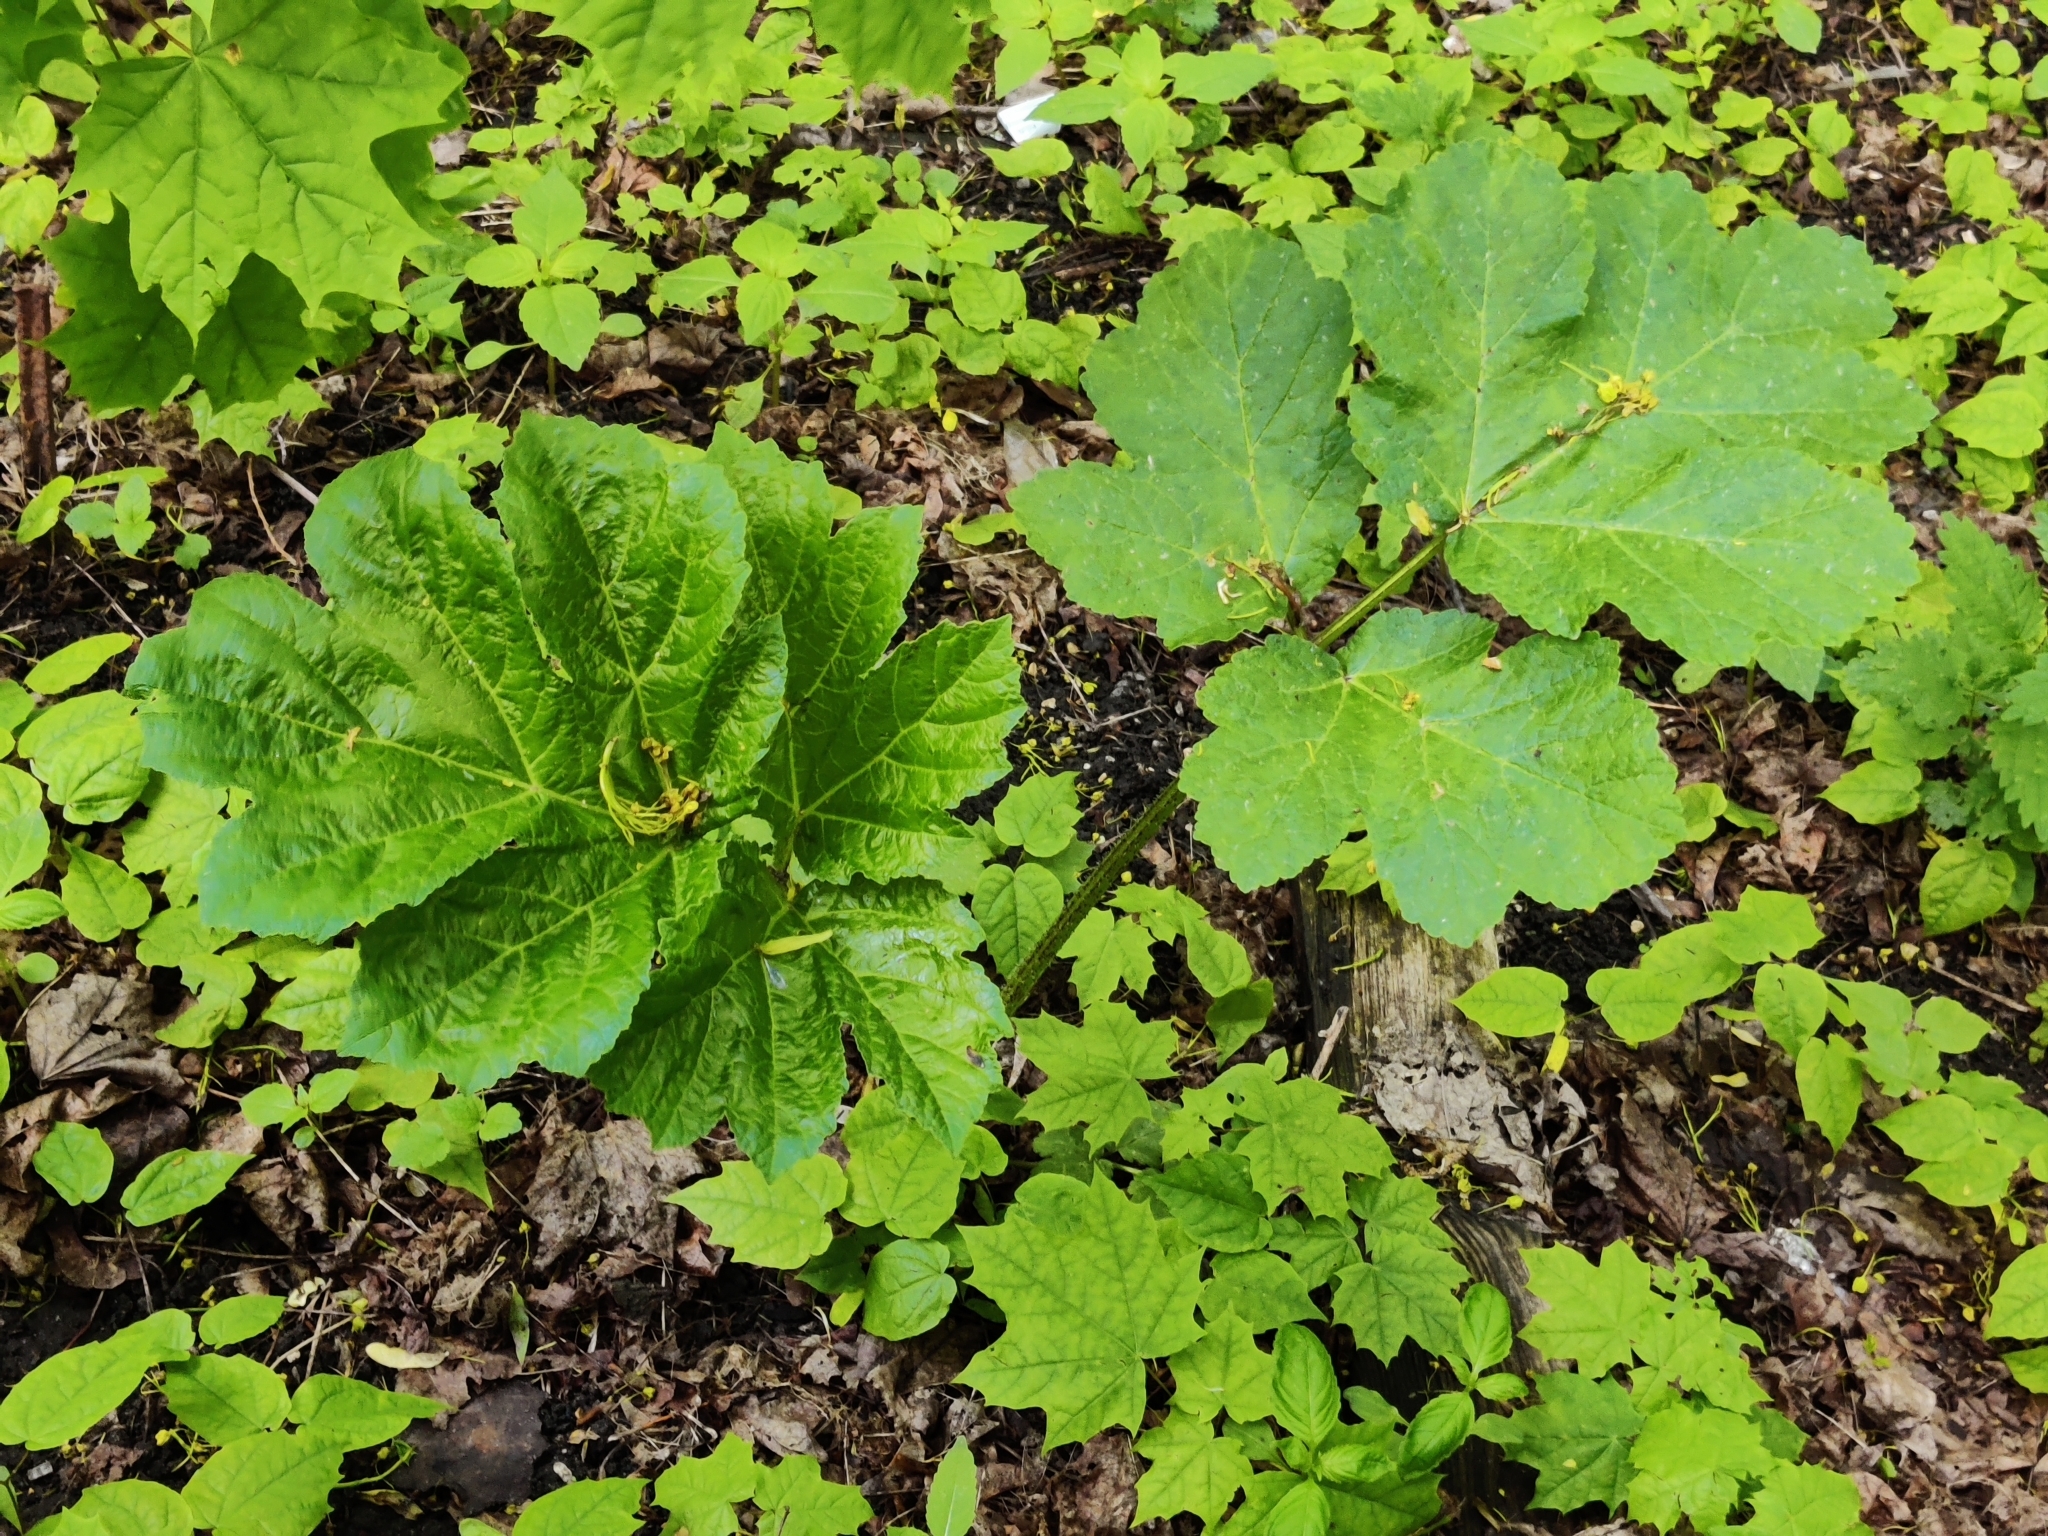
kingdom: Plantae
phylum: Tracheophyta
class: Magnoliopsida
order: Apiales
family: Apiaceae
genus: Heracleum
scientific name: Heracleum sosnowskyi
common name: Sosnowsky's hogweed
